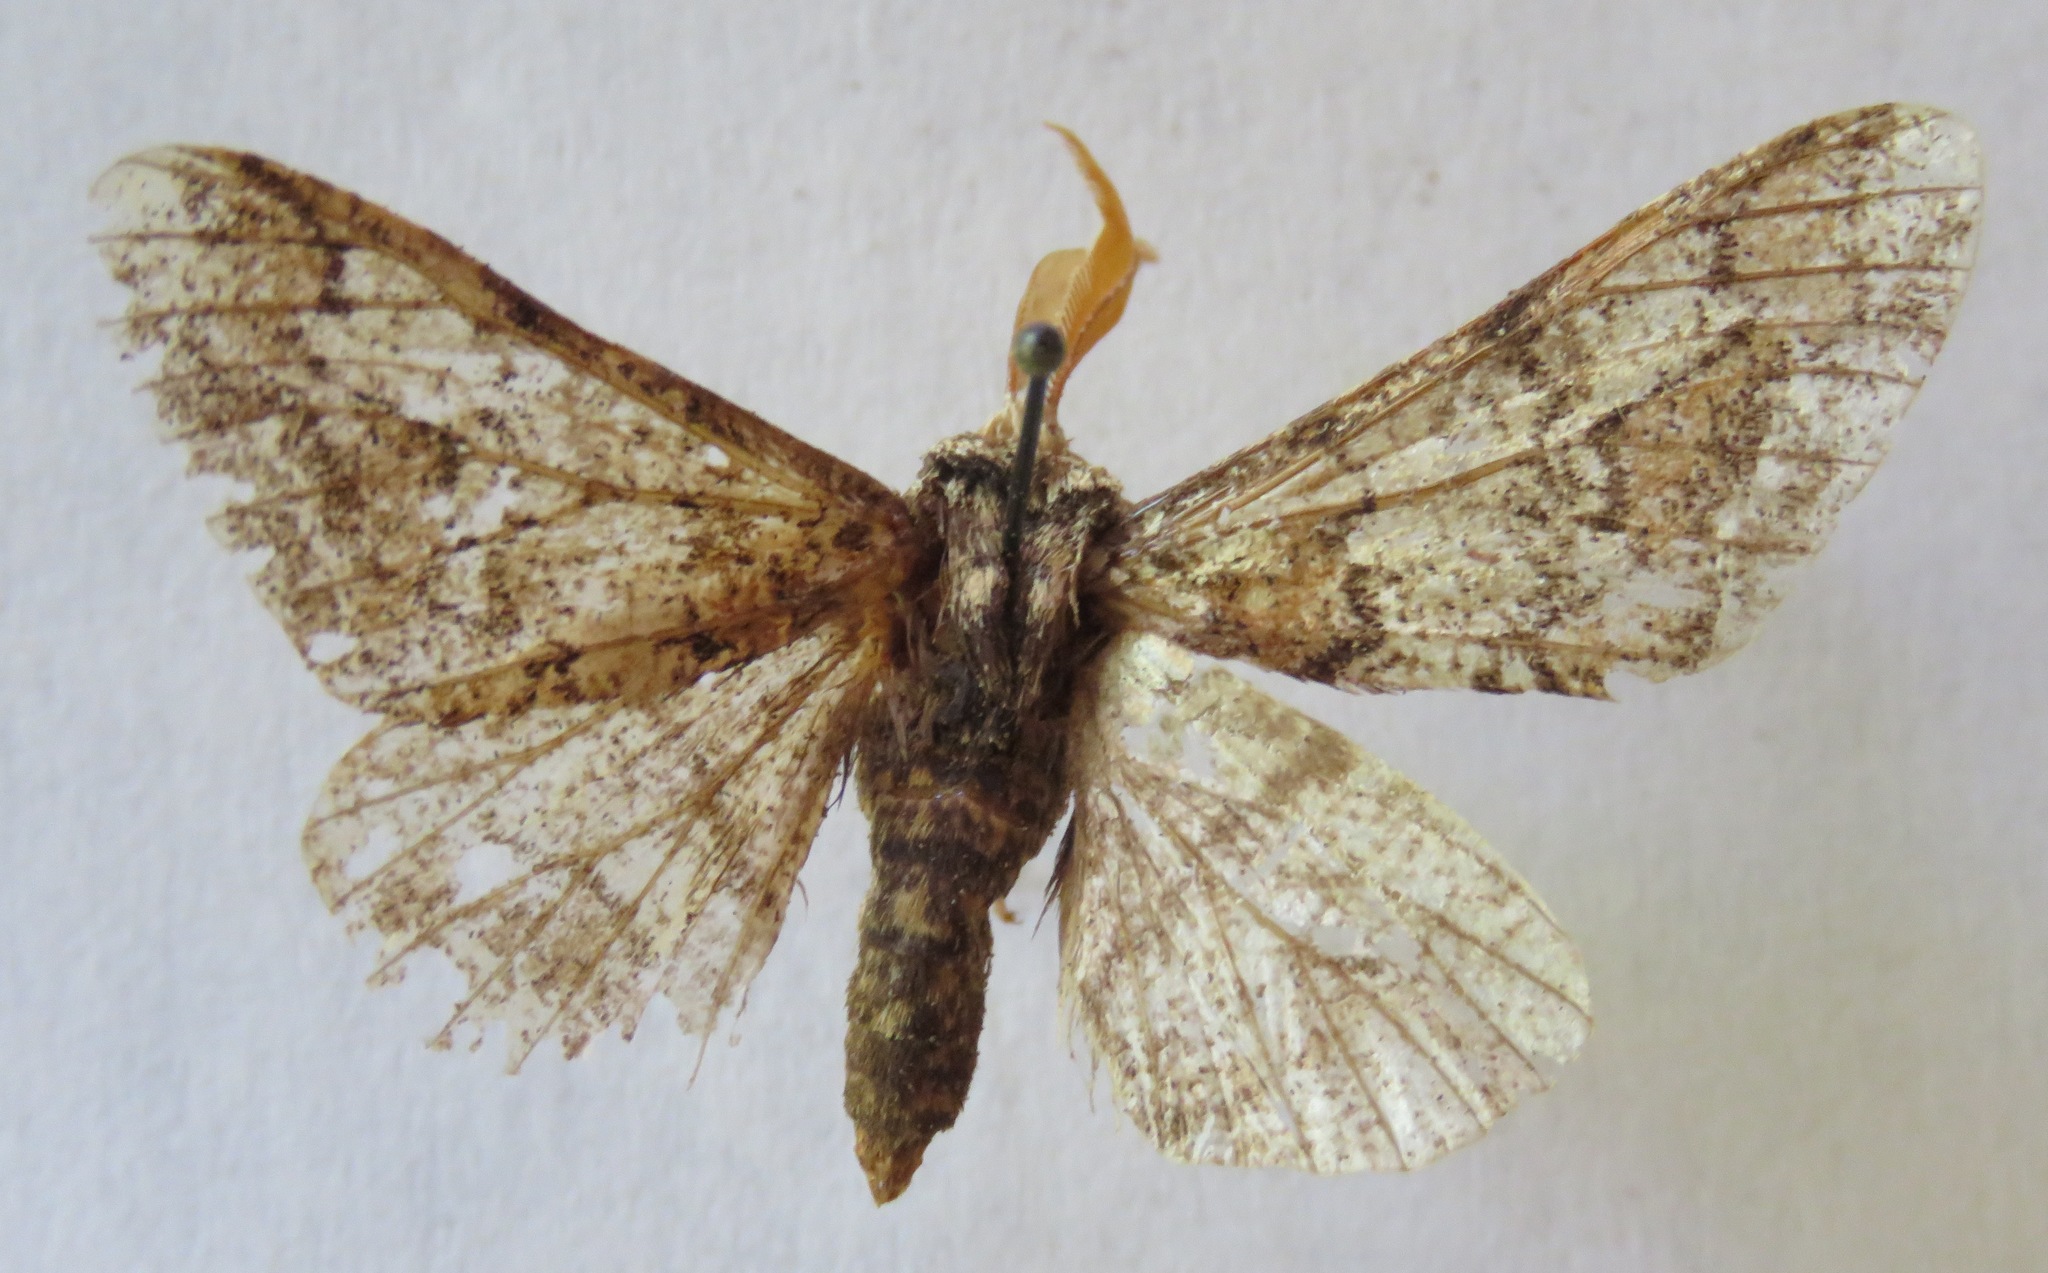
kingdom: Animalia
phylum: Arthropoda
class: Insecta
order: Lepidoptera
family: Geometridae
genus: Biston
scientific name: Biston strataria
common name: Oak beauty
